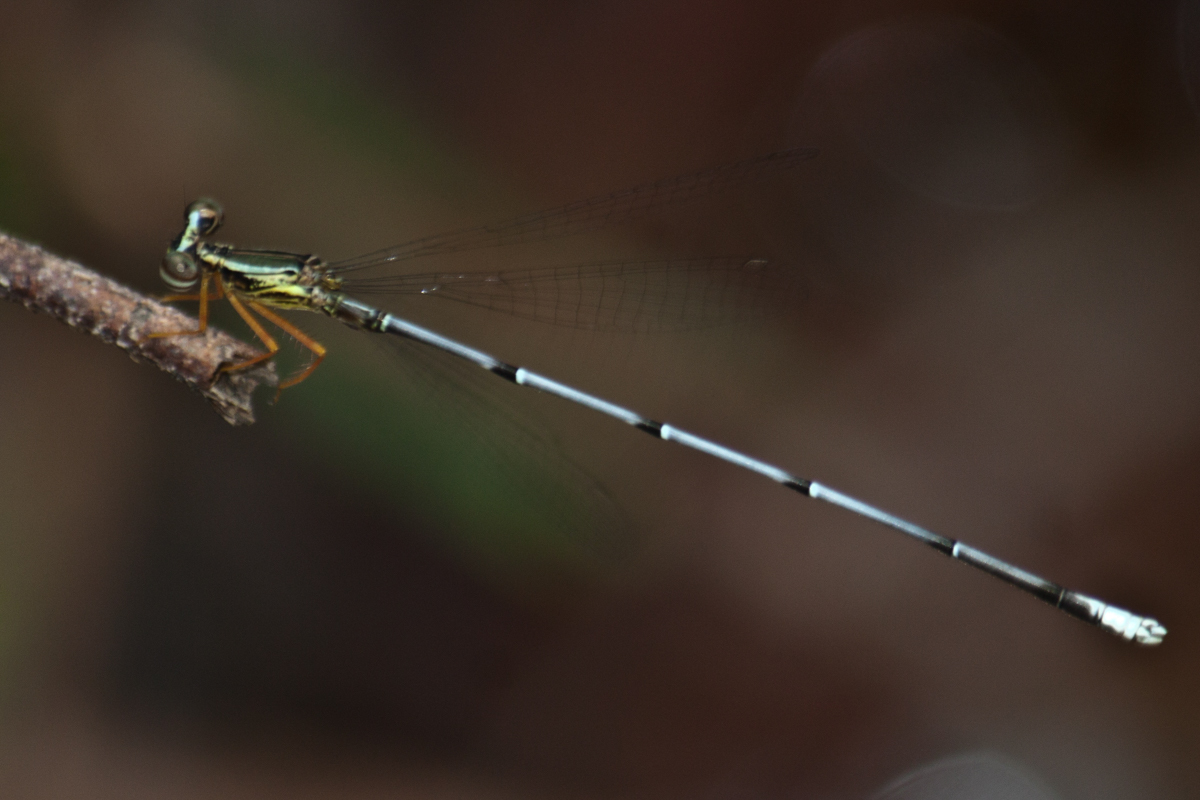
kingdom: Animalia
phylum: Arthropoda
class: Insecta
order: Odonata
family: Platycnemididae
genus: Copera
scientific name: Copera vittata
